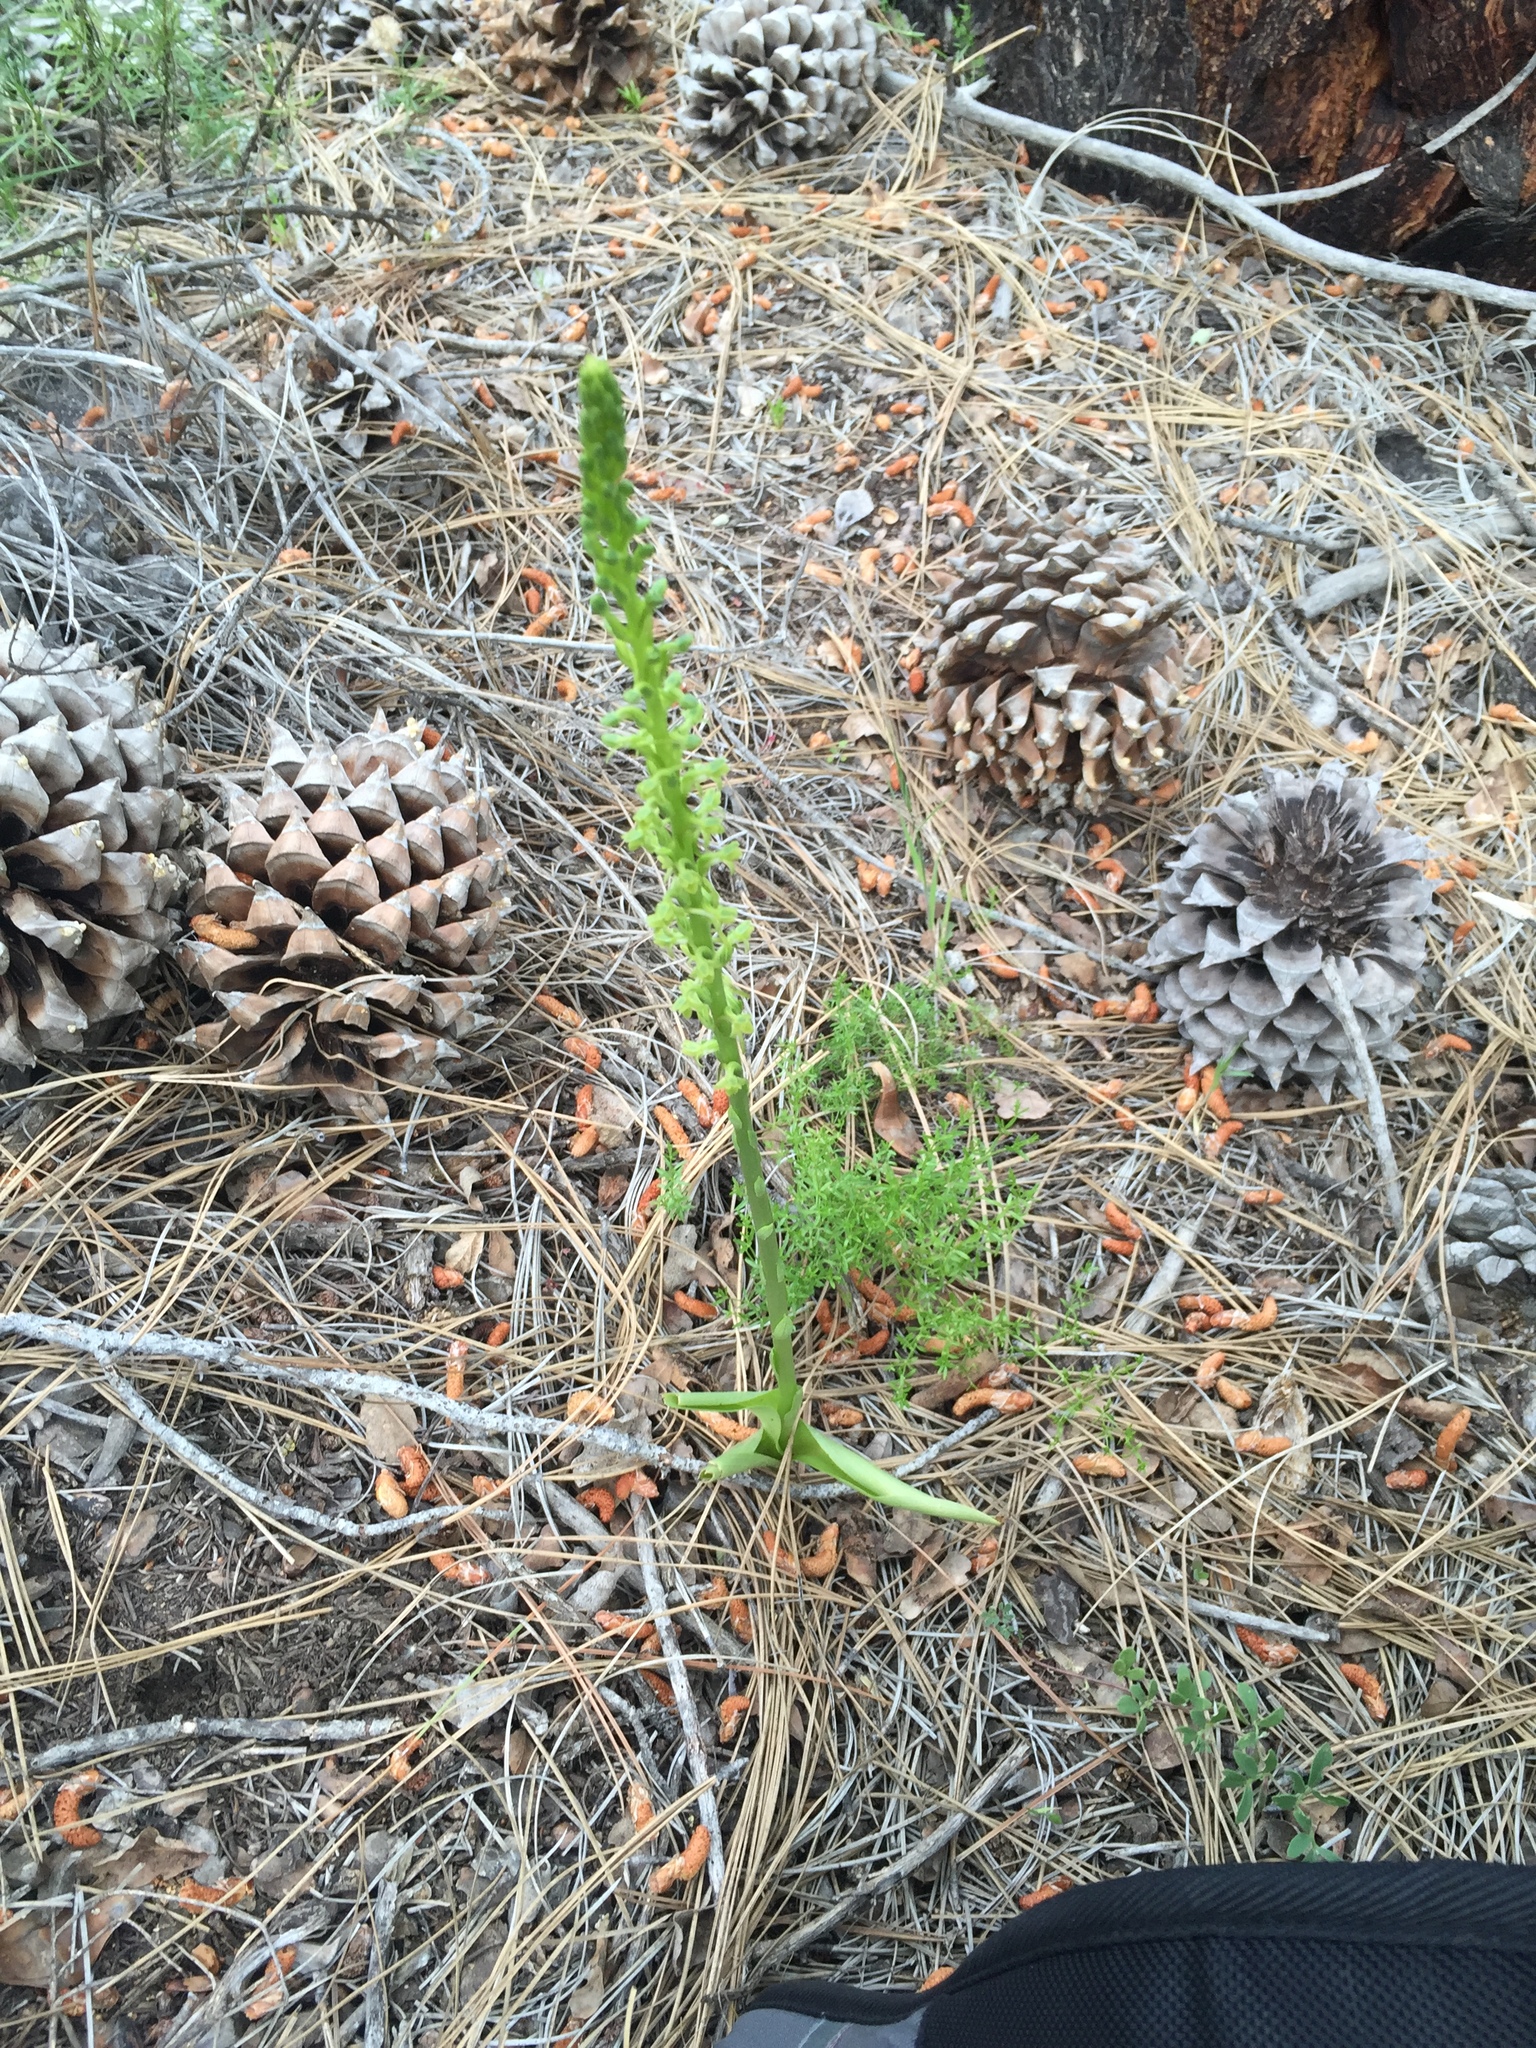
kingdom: Plantae
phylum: Tracheophyta
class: Liliopsida
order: Asparagales
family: Orchidaceae
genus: Platanthera
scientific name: Platanthera michaelii
